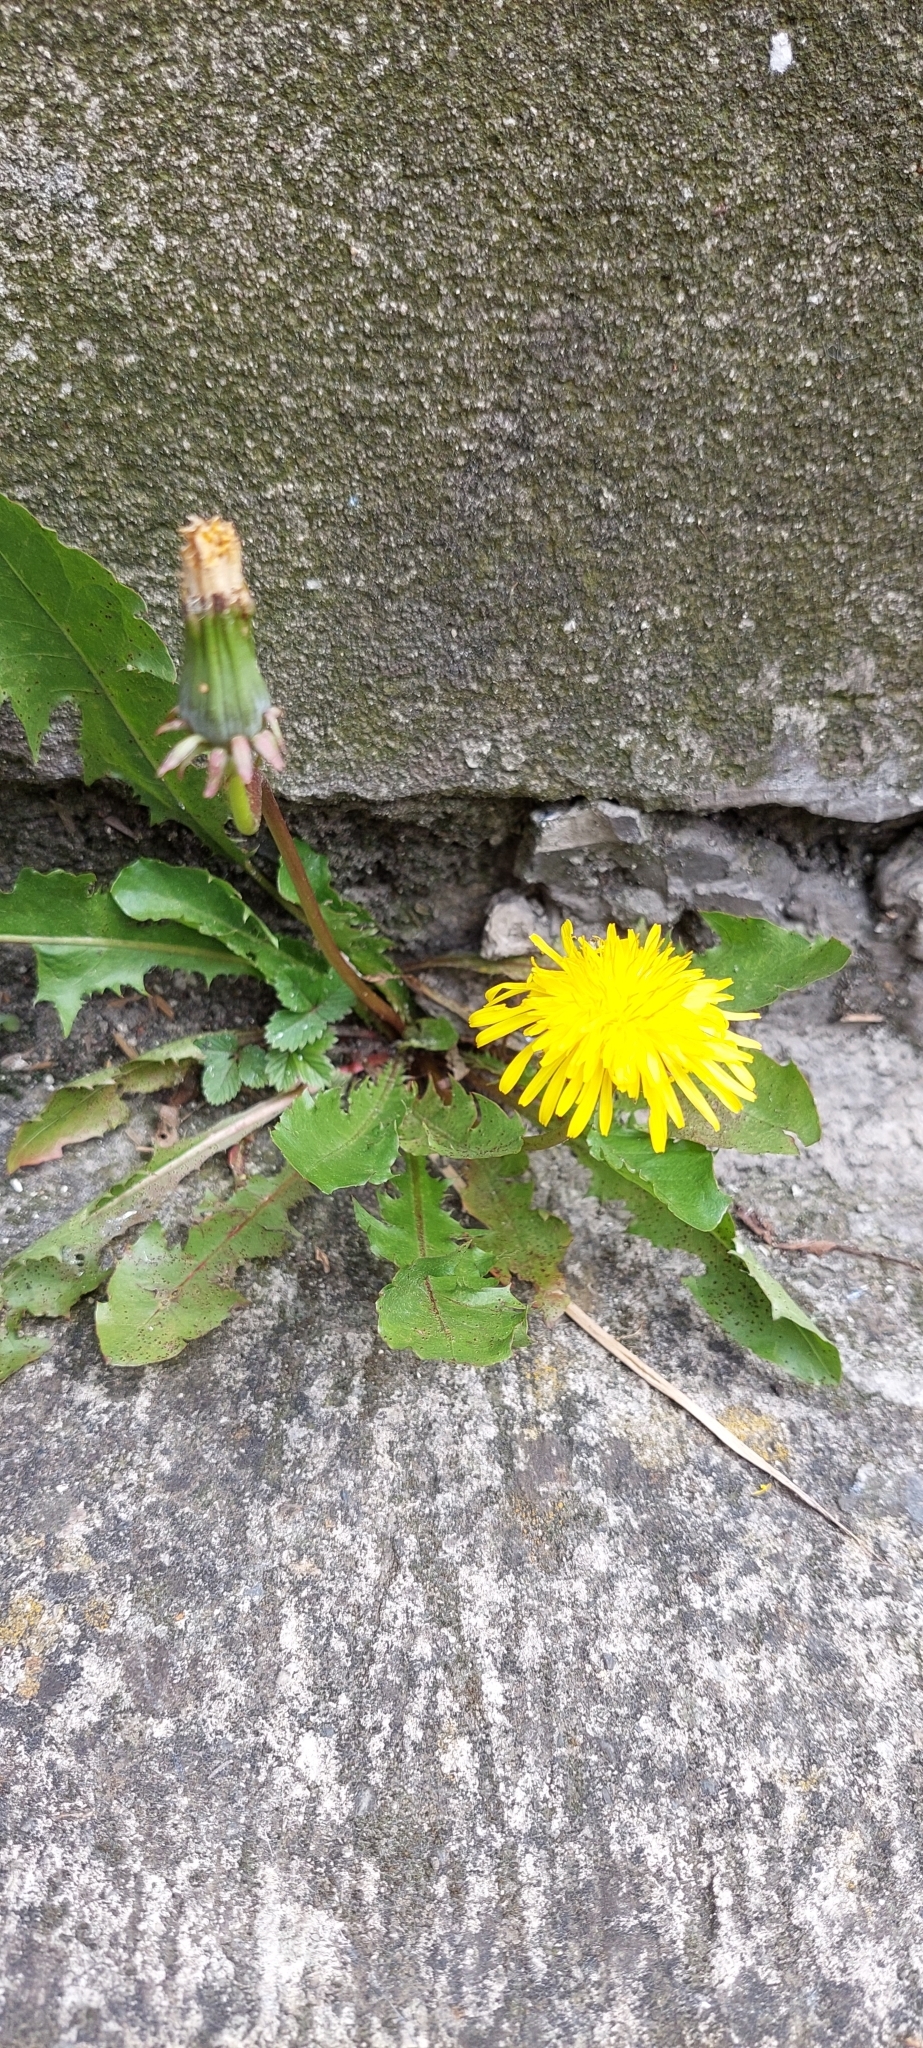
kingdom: Plantae
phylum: Tracheophyta
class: Magnoliopsida
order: Asterales
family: Asteraceae
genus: Taraxacum
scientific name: Taraxacum
